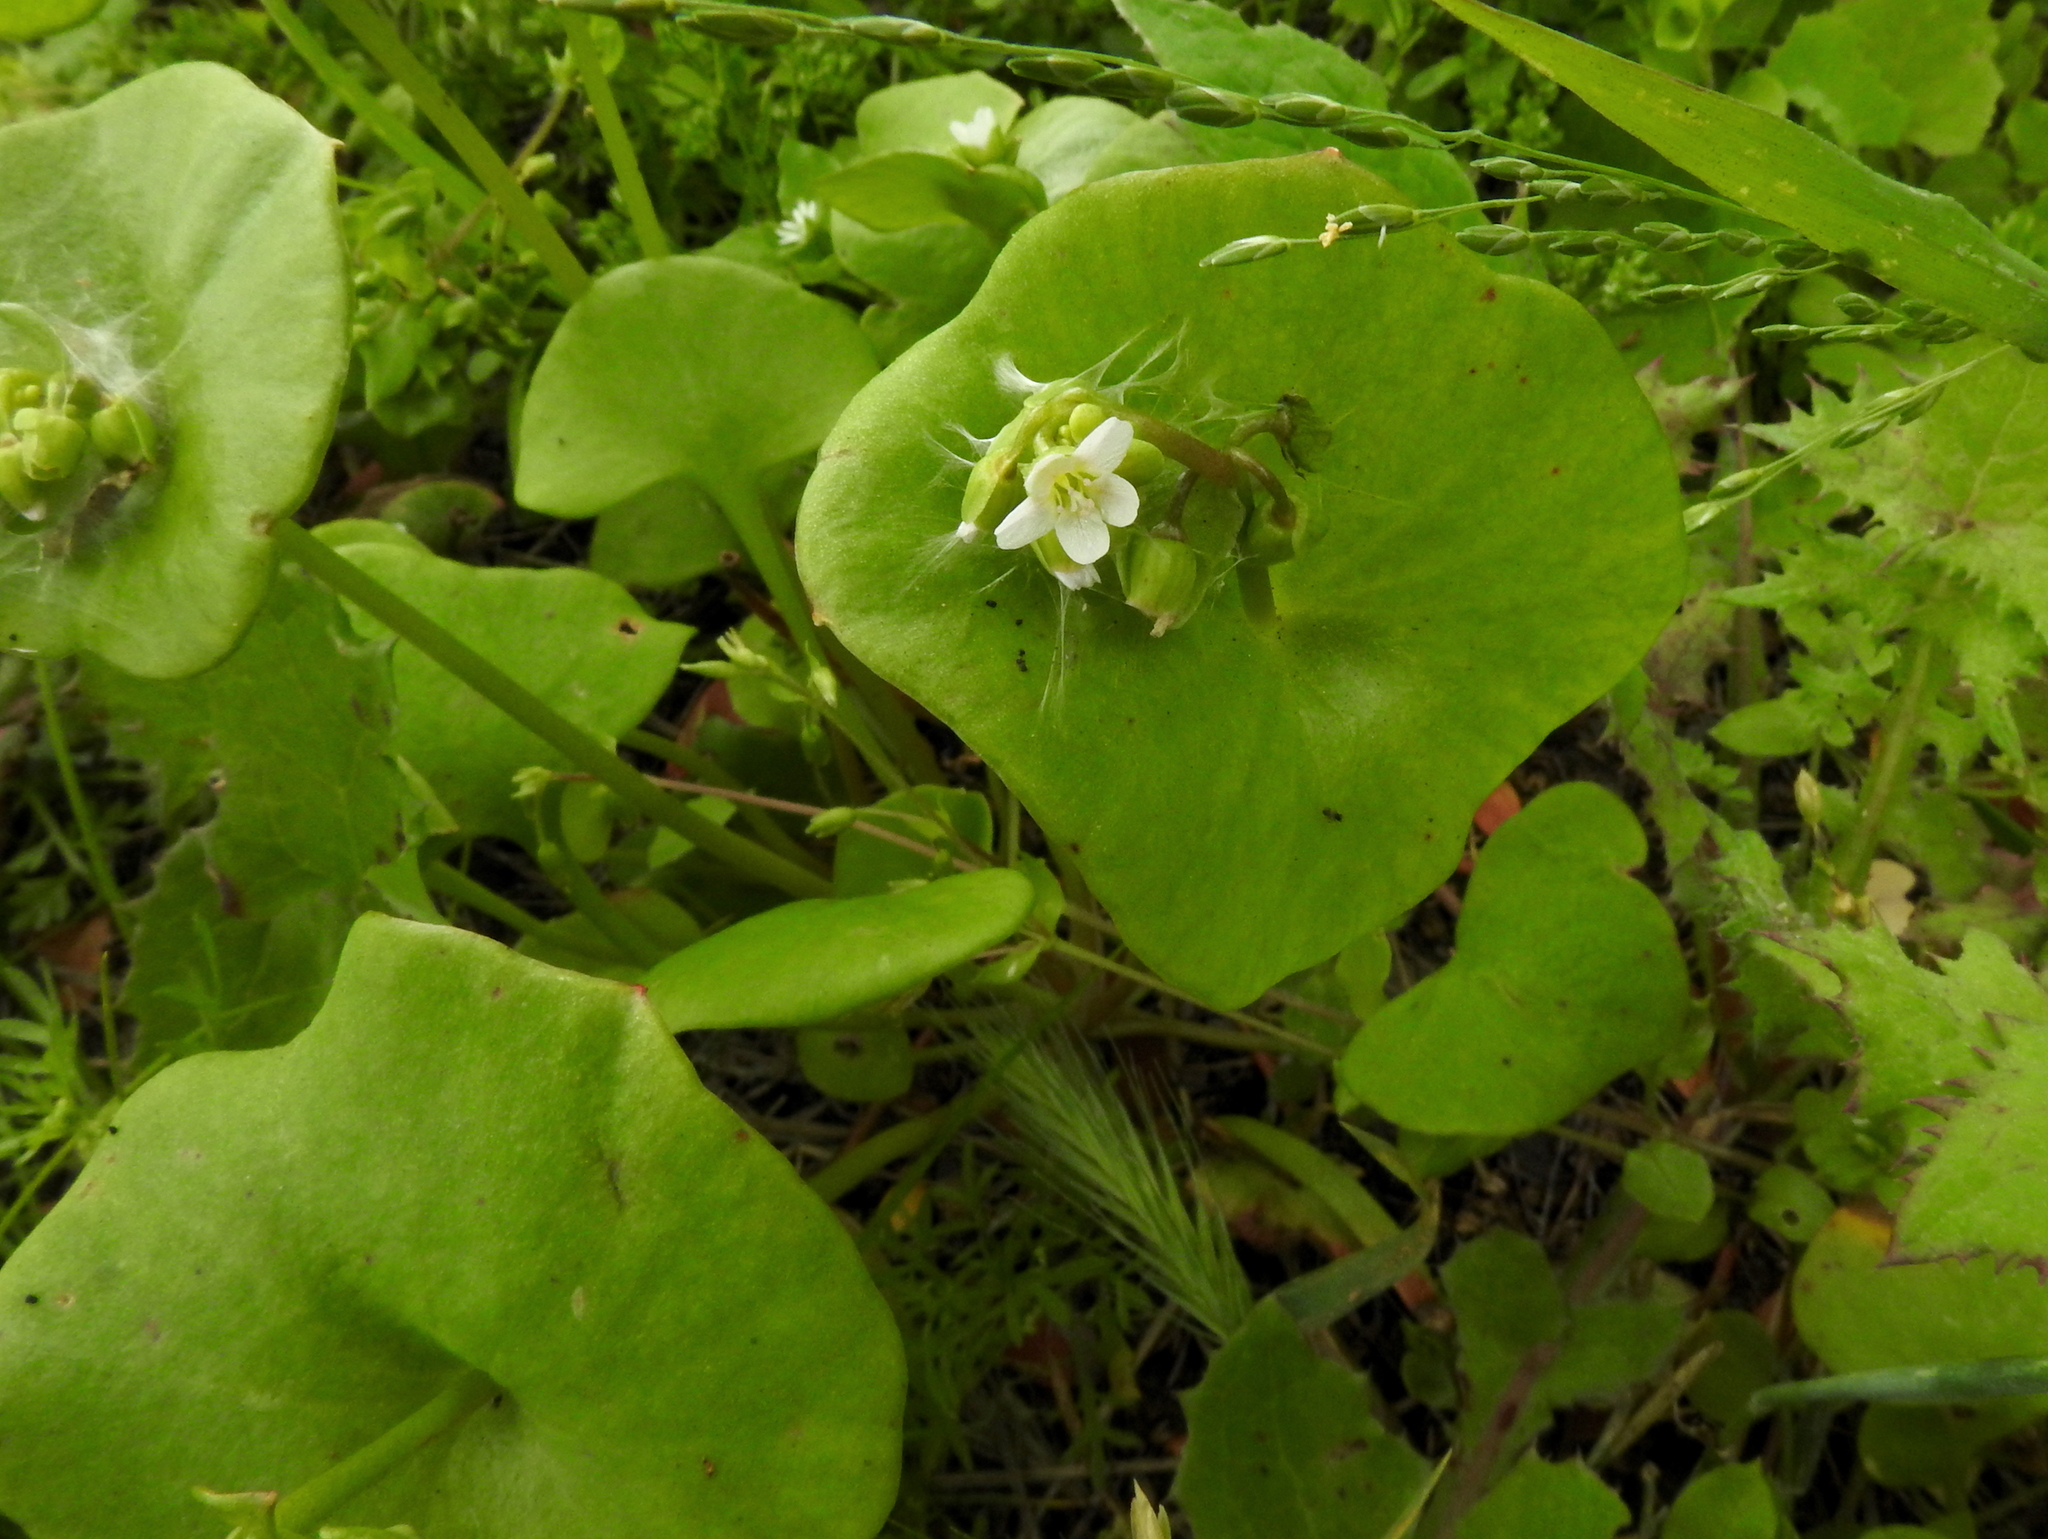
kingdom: Plantae
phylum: Tracheophyta
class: Magnoliopsida
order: Caryophyllales
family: Montiaceae
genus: Claytonia
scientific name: Claytonia perfoliata
